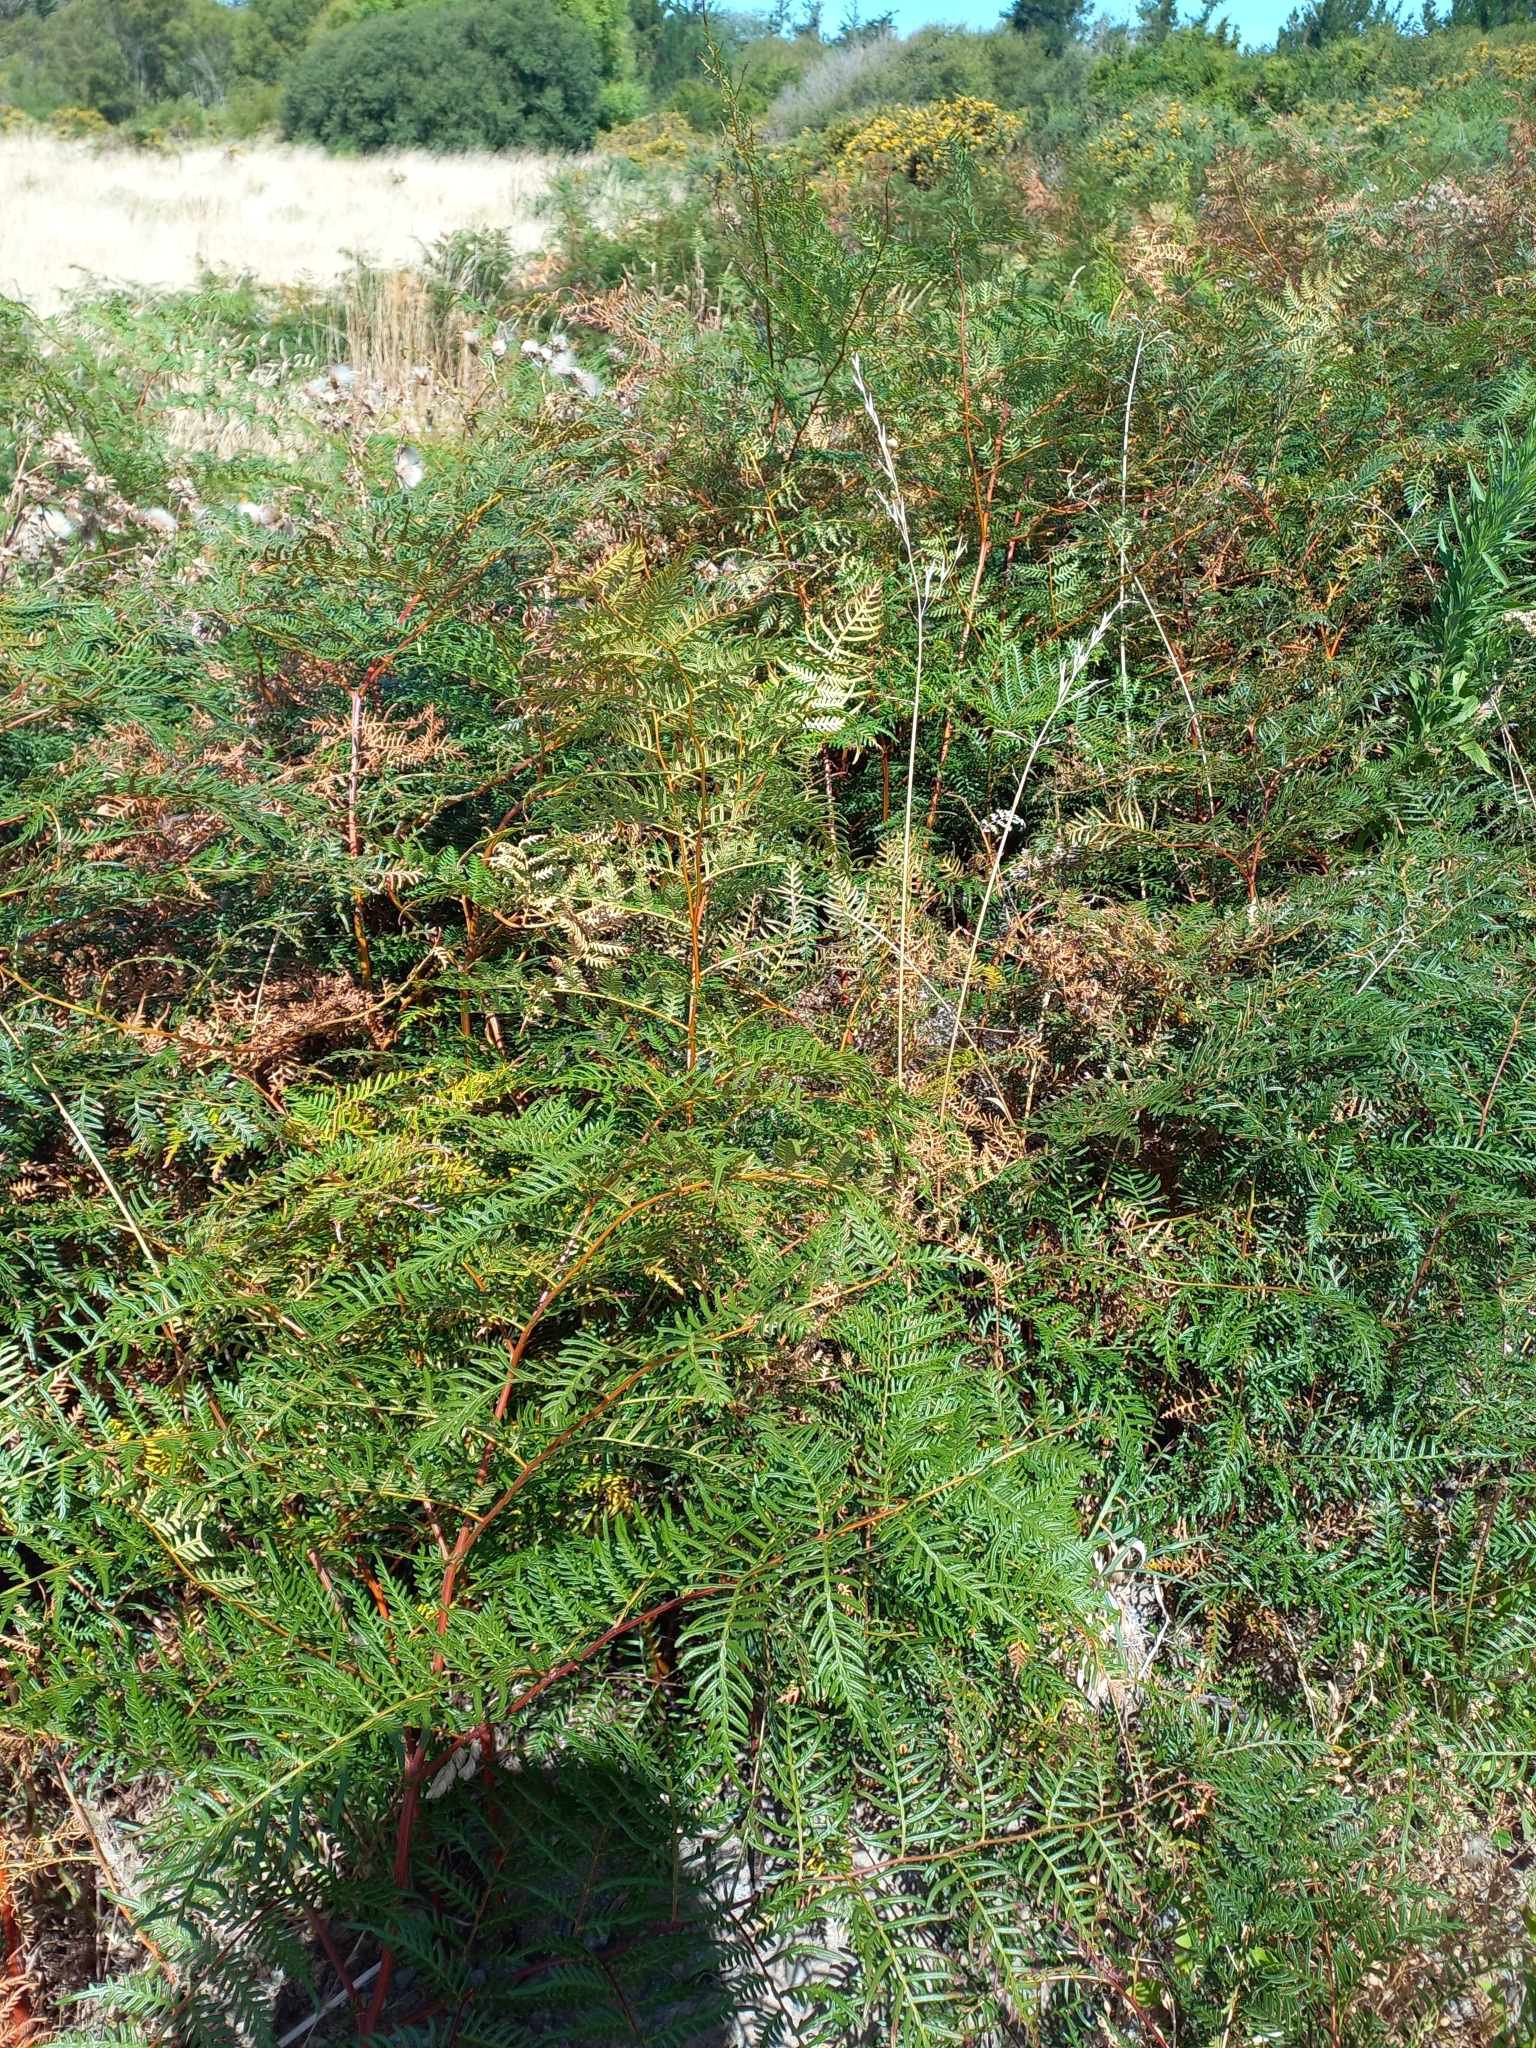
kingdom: Plantae
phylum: Tracheophyta
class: Polypodiopsida
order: Polypodiales
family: Dennstaedtiaceae
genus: Pteridium
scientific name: Pteridium esculentum
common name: Bracken fern
